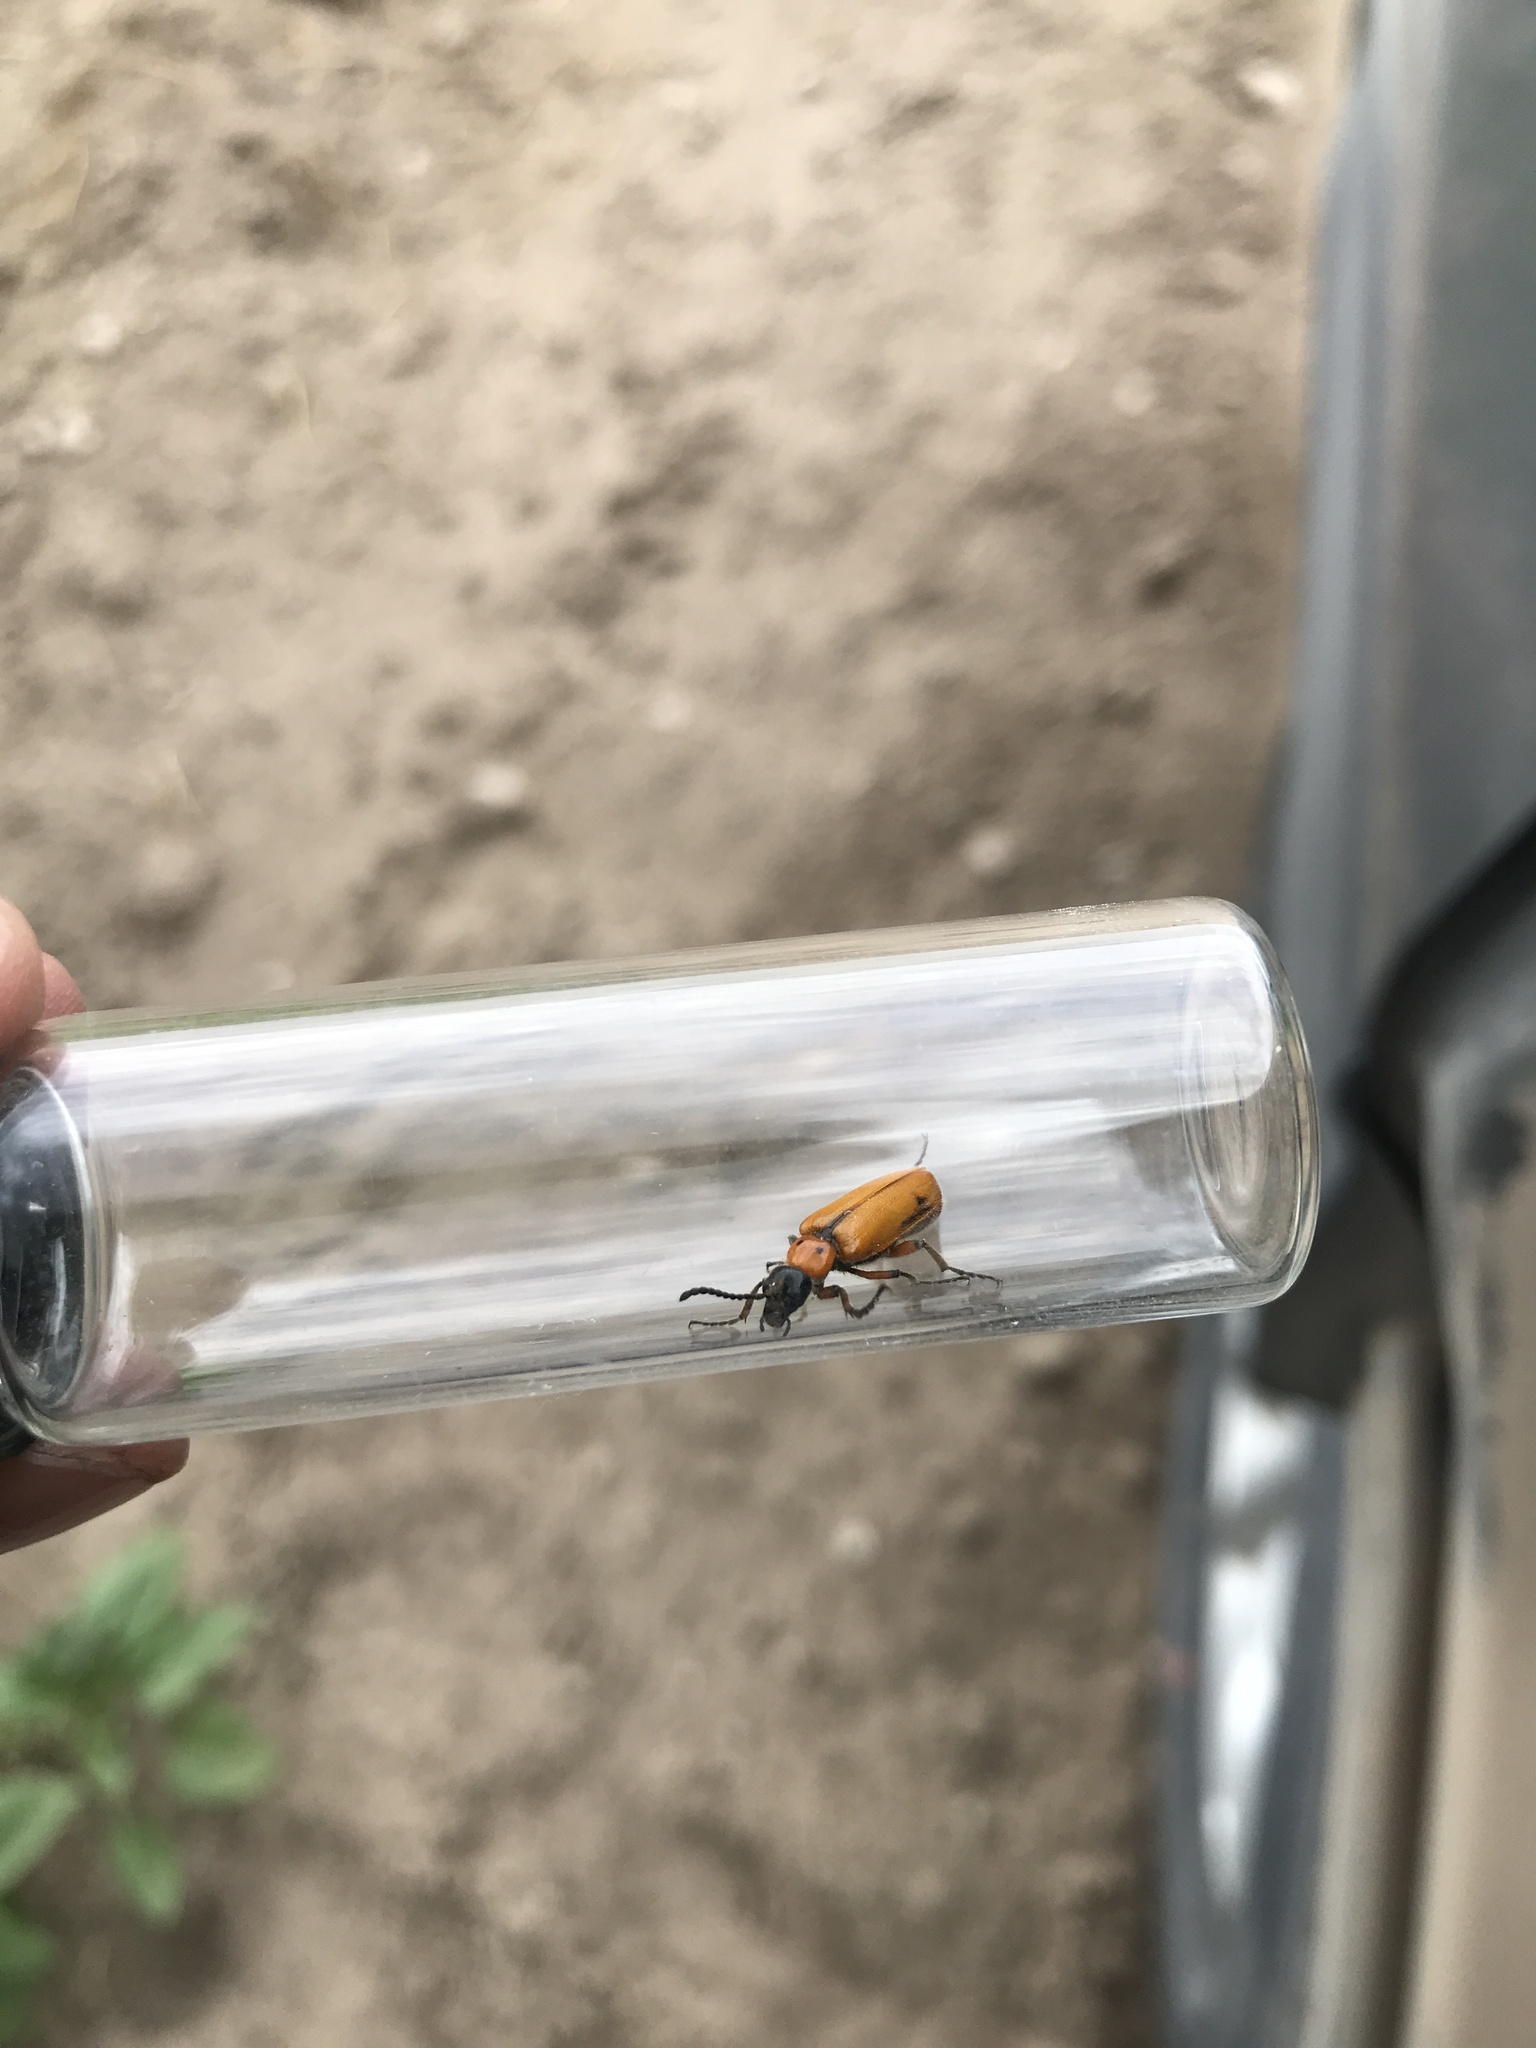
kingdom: Animalia
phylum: Arthropoda
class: Insecta
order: Coleoptera
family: Meloidae
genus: Lytta
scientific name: Lytta biguttata
